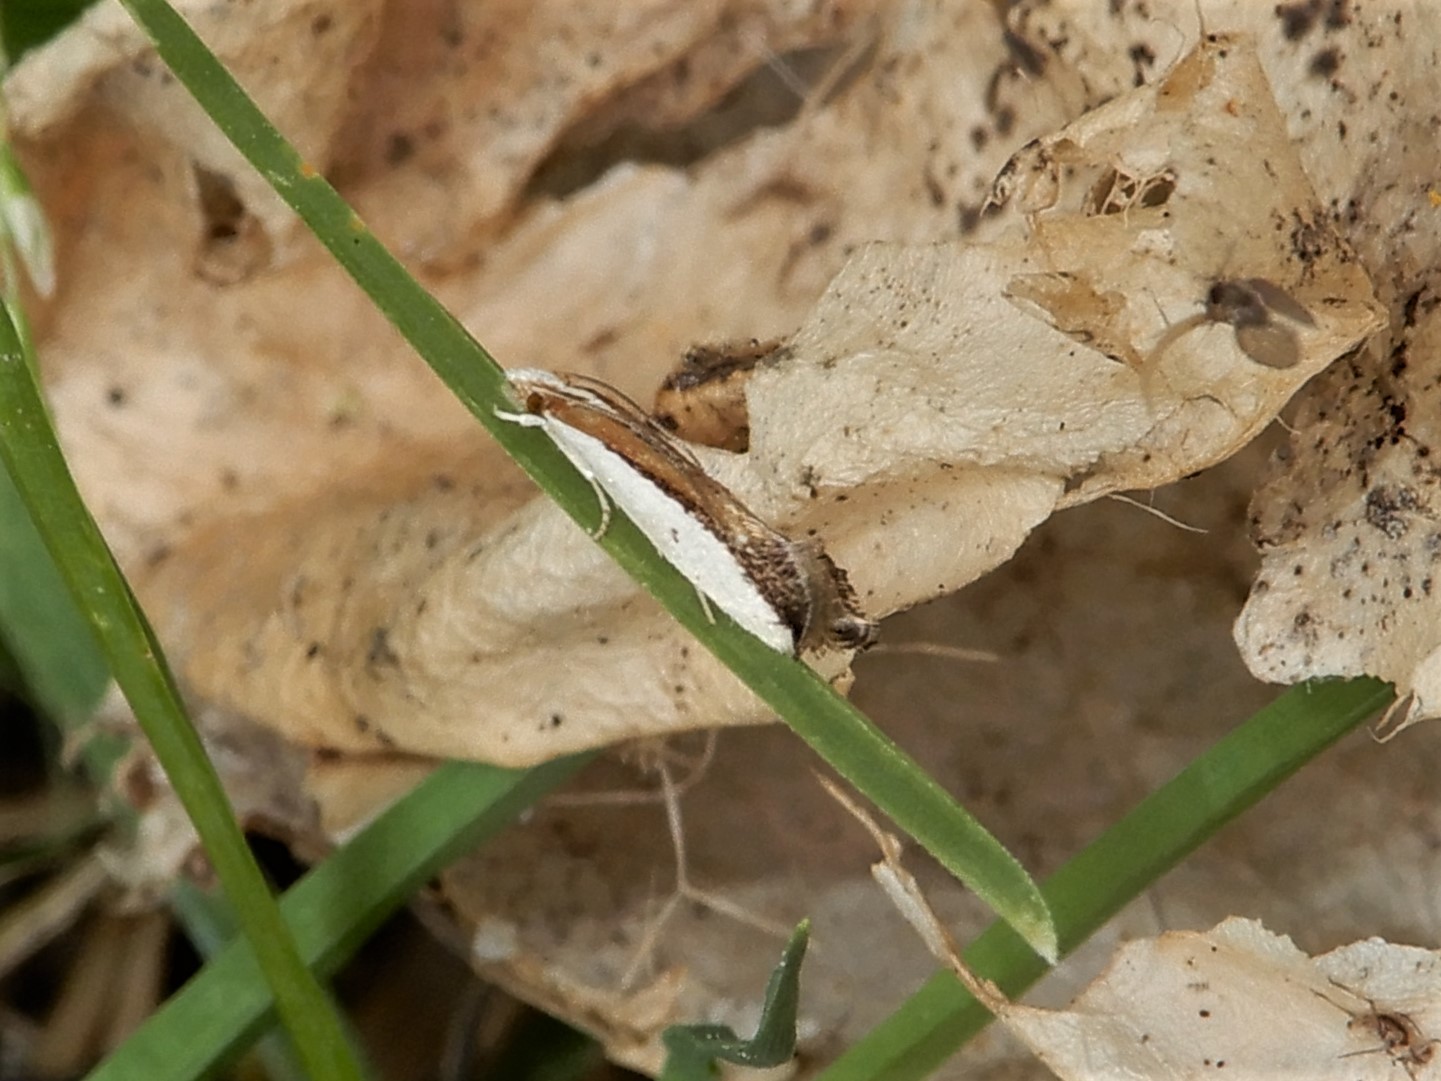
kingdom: Animalia
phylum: Arthropoda
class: Insecta
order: Lepidoptera
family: Tineidae
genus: Erechthias
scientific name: Erechthias chionodira
